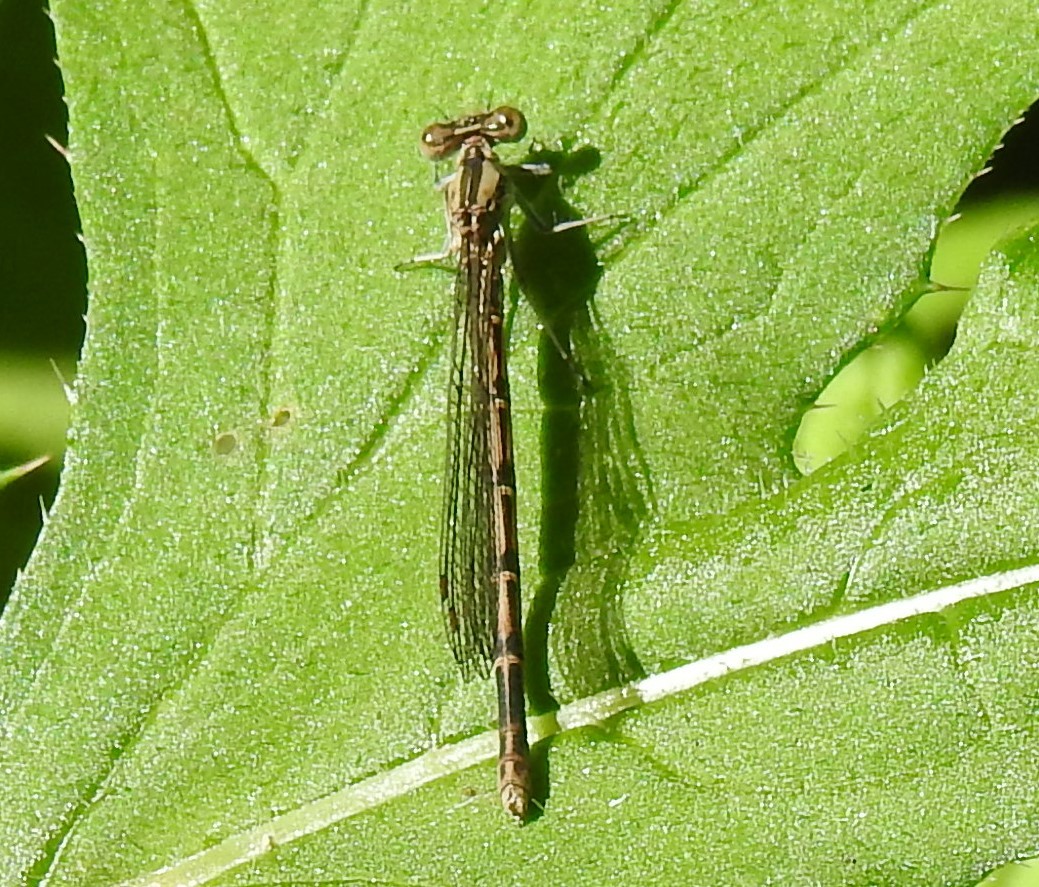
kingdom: Animalia
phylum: Arthropoda
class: Insecta
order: Odonata
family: Coenagrionidae
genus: Argia
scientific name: Argia fumipennis
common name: Variable dancer
